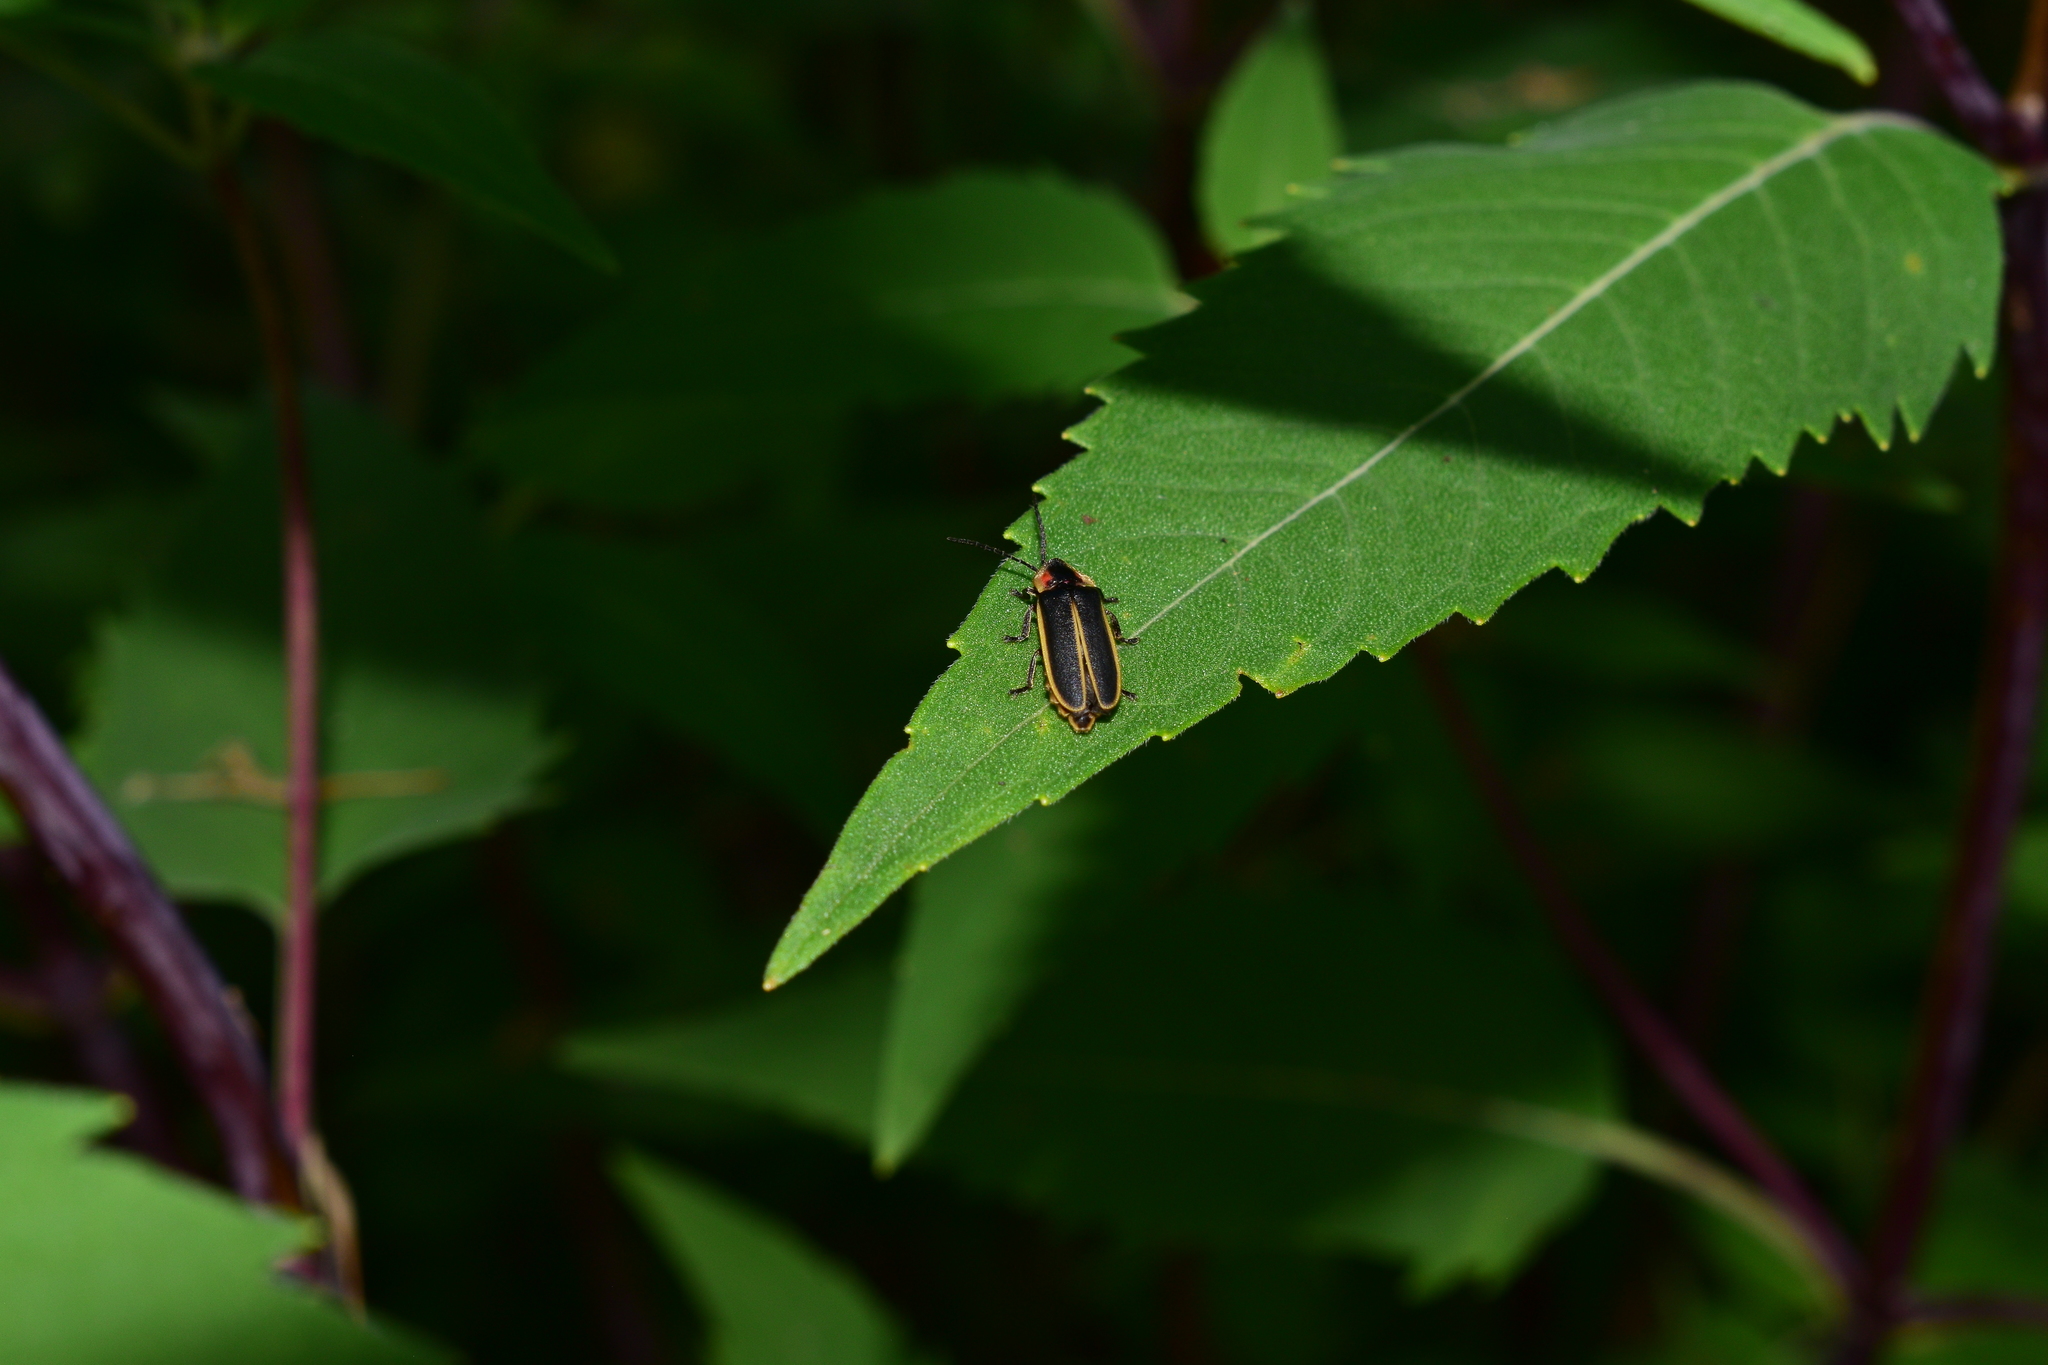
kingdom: Animalia
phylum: Arthropoda
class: Insecta
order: Coleoptera
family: Lampyridae
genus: Photinus
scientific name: Photinus indictus
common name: Silent firefly
